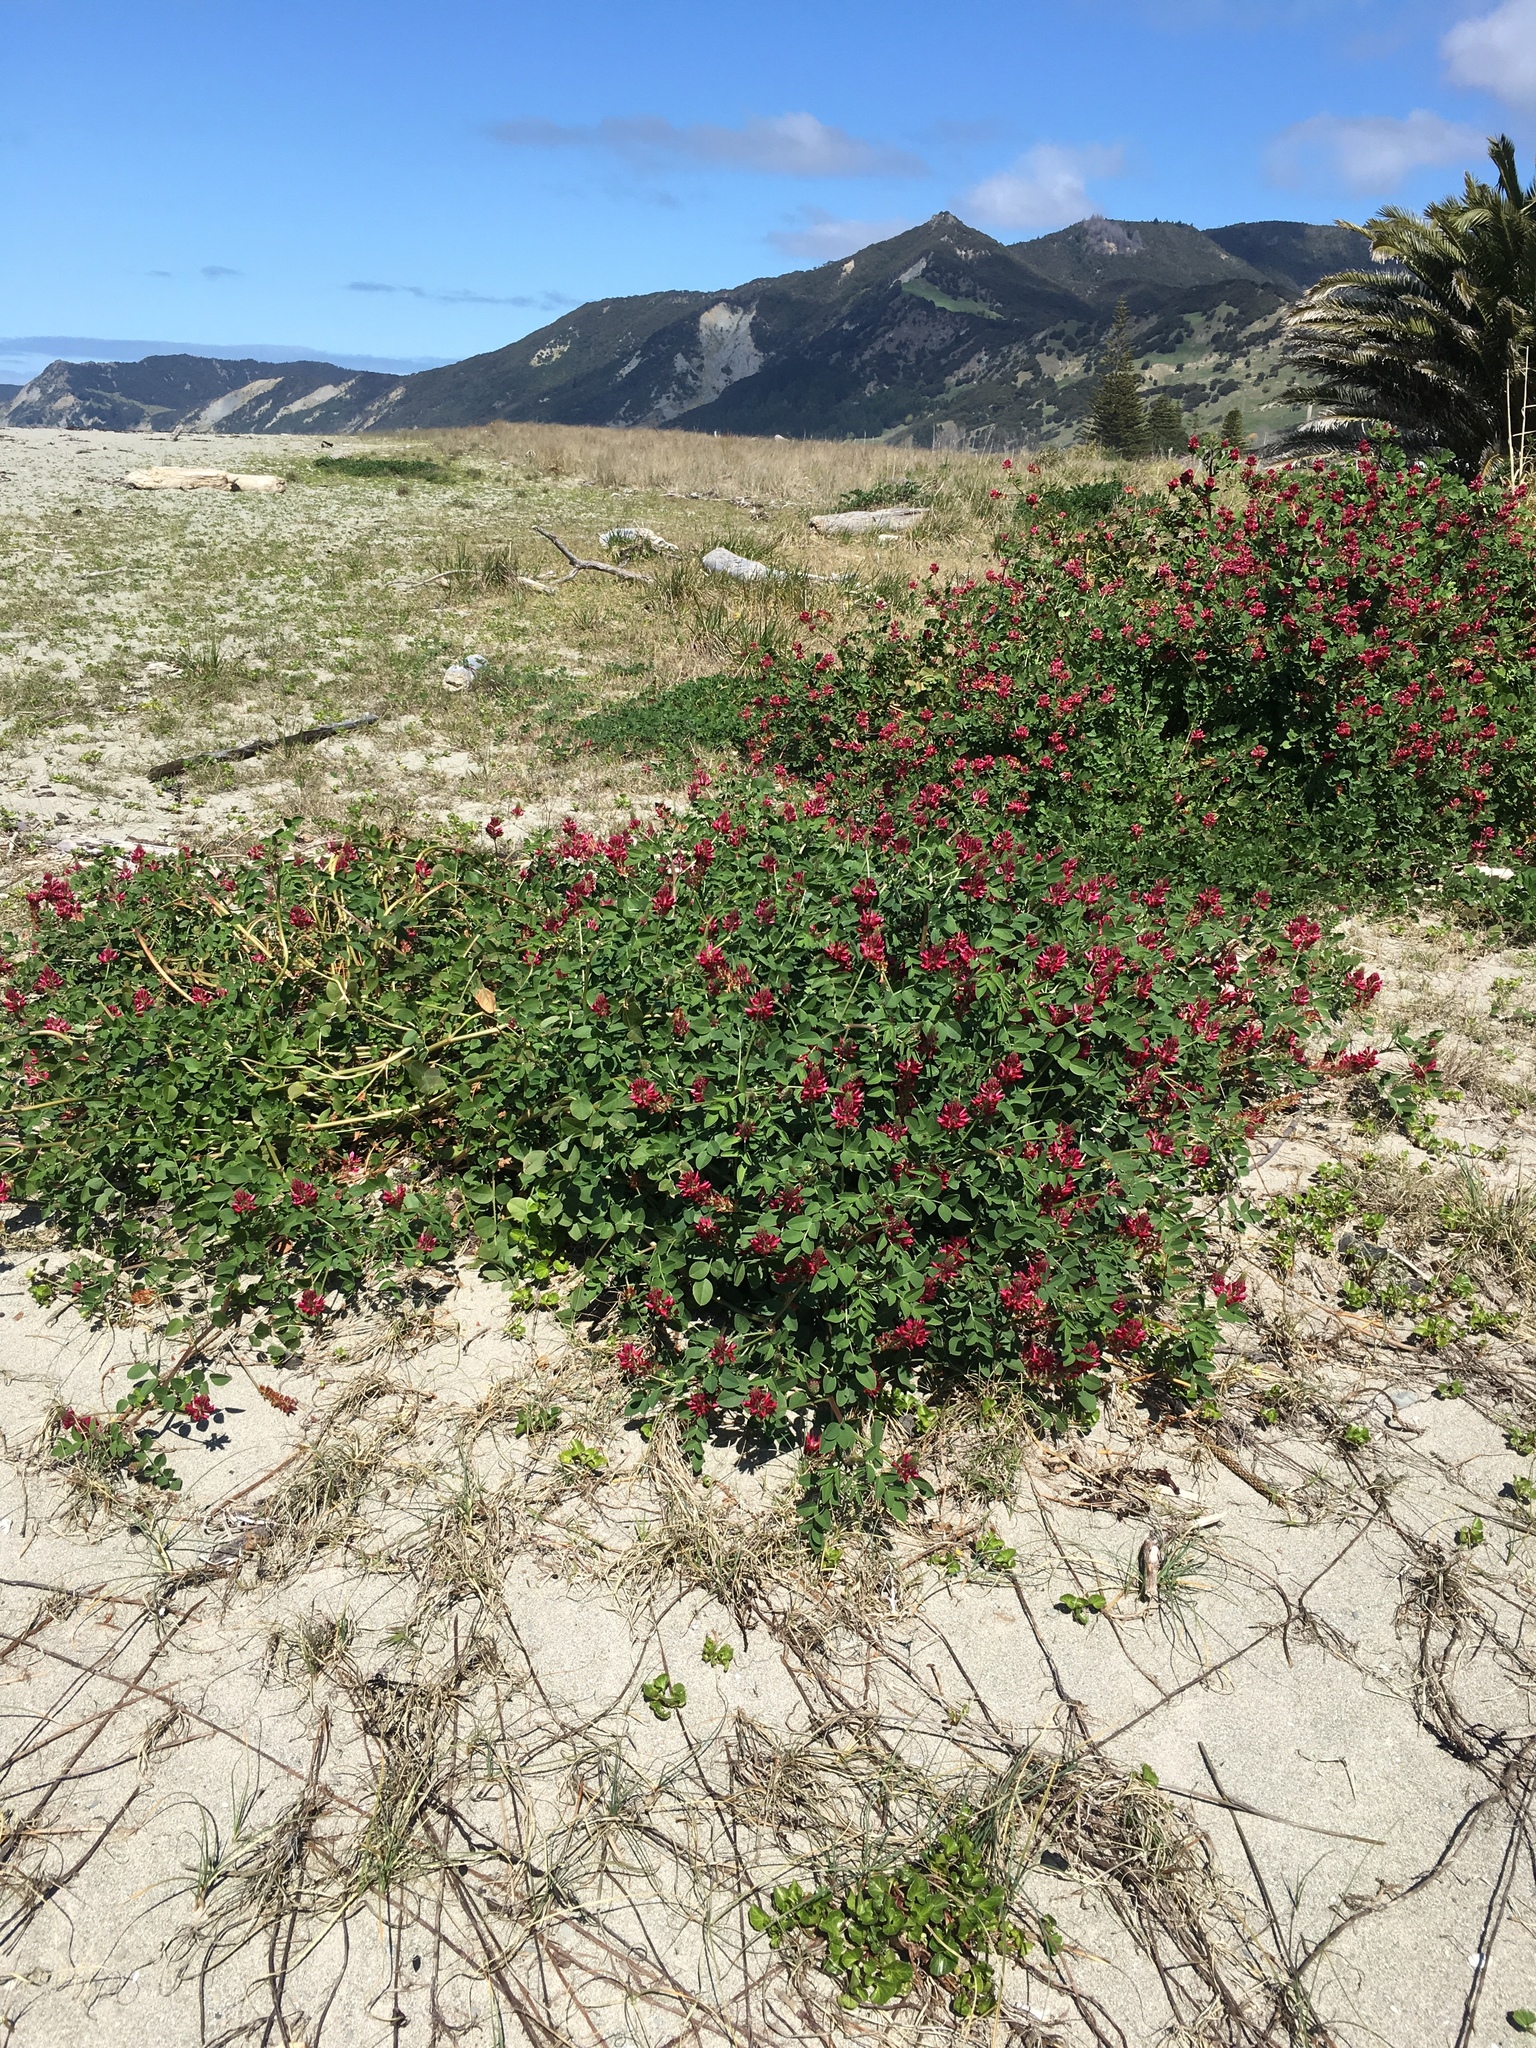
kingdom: Plantae
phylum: Tracheophyta
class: Magnoliopsida
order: Fabales
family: Fabaceae
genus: Sulla
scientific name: Sulla coronaria
